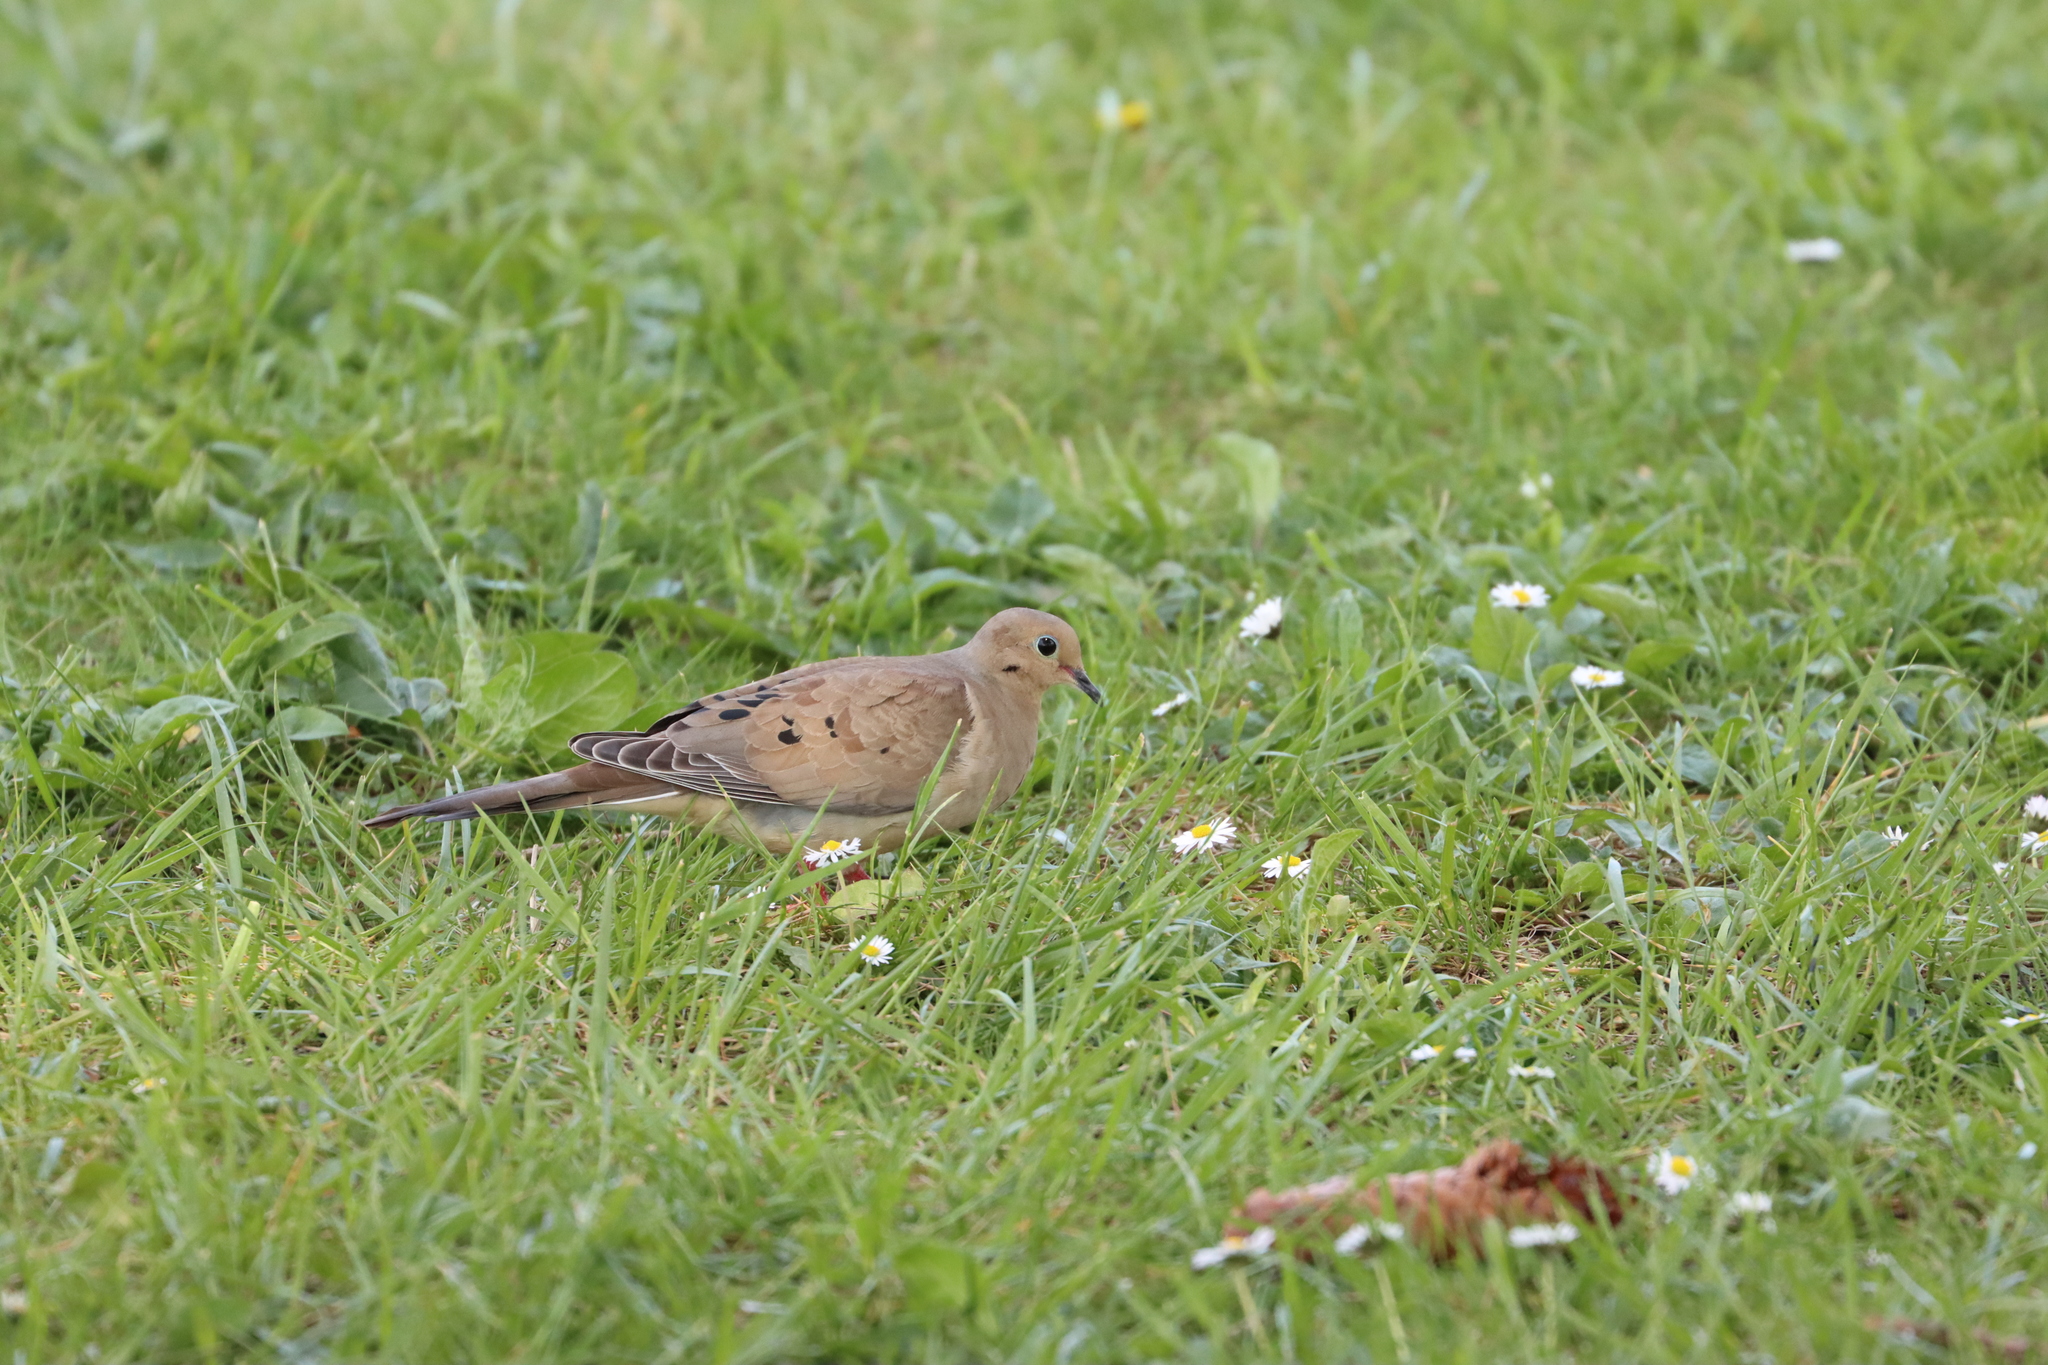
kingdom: Animalia
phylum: Chordata
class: Aves
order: Columbiformes
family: Columbidae
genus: Zenaida
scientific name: Zenaida macroura
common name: Mourning dove
